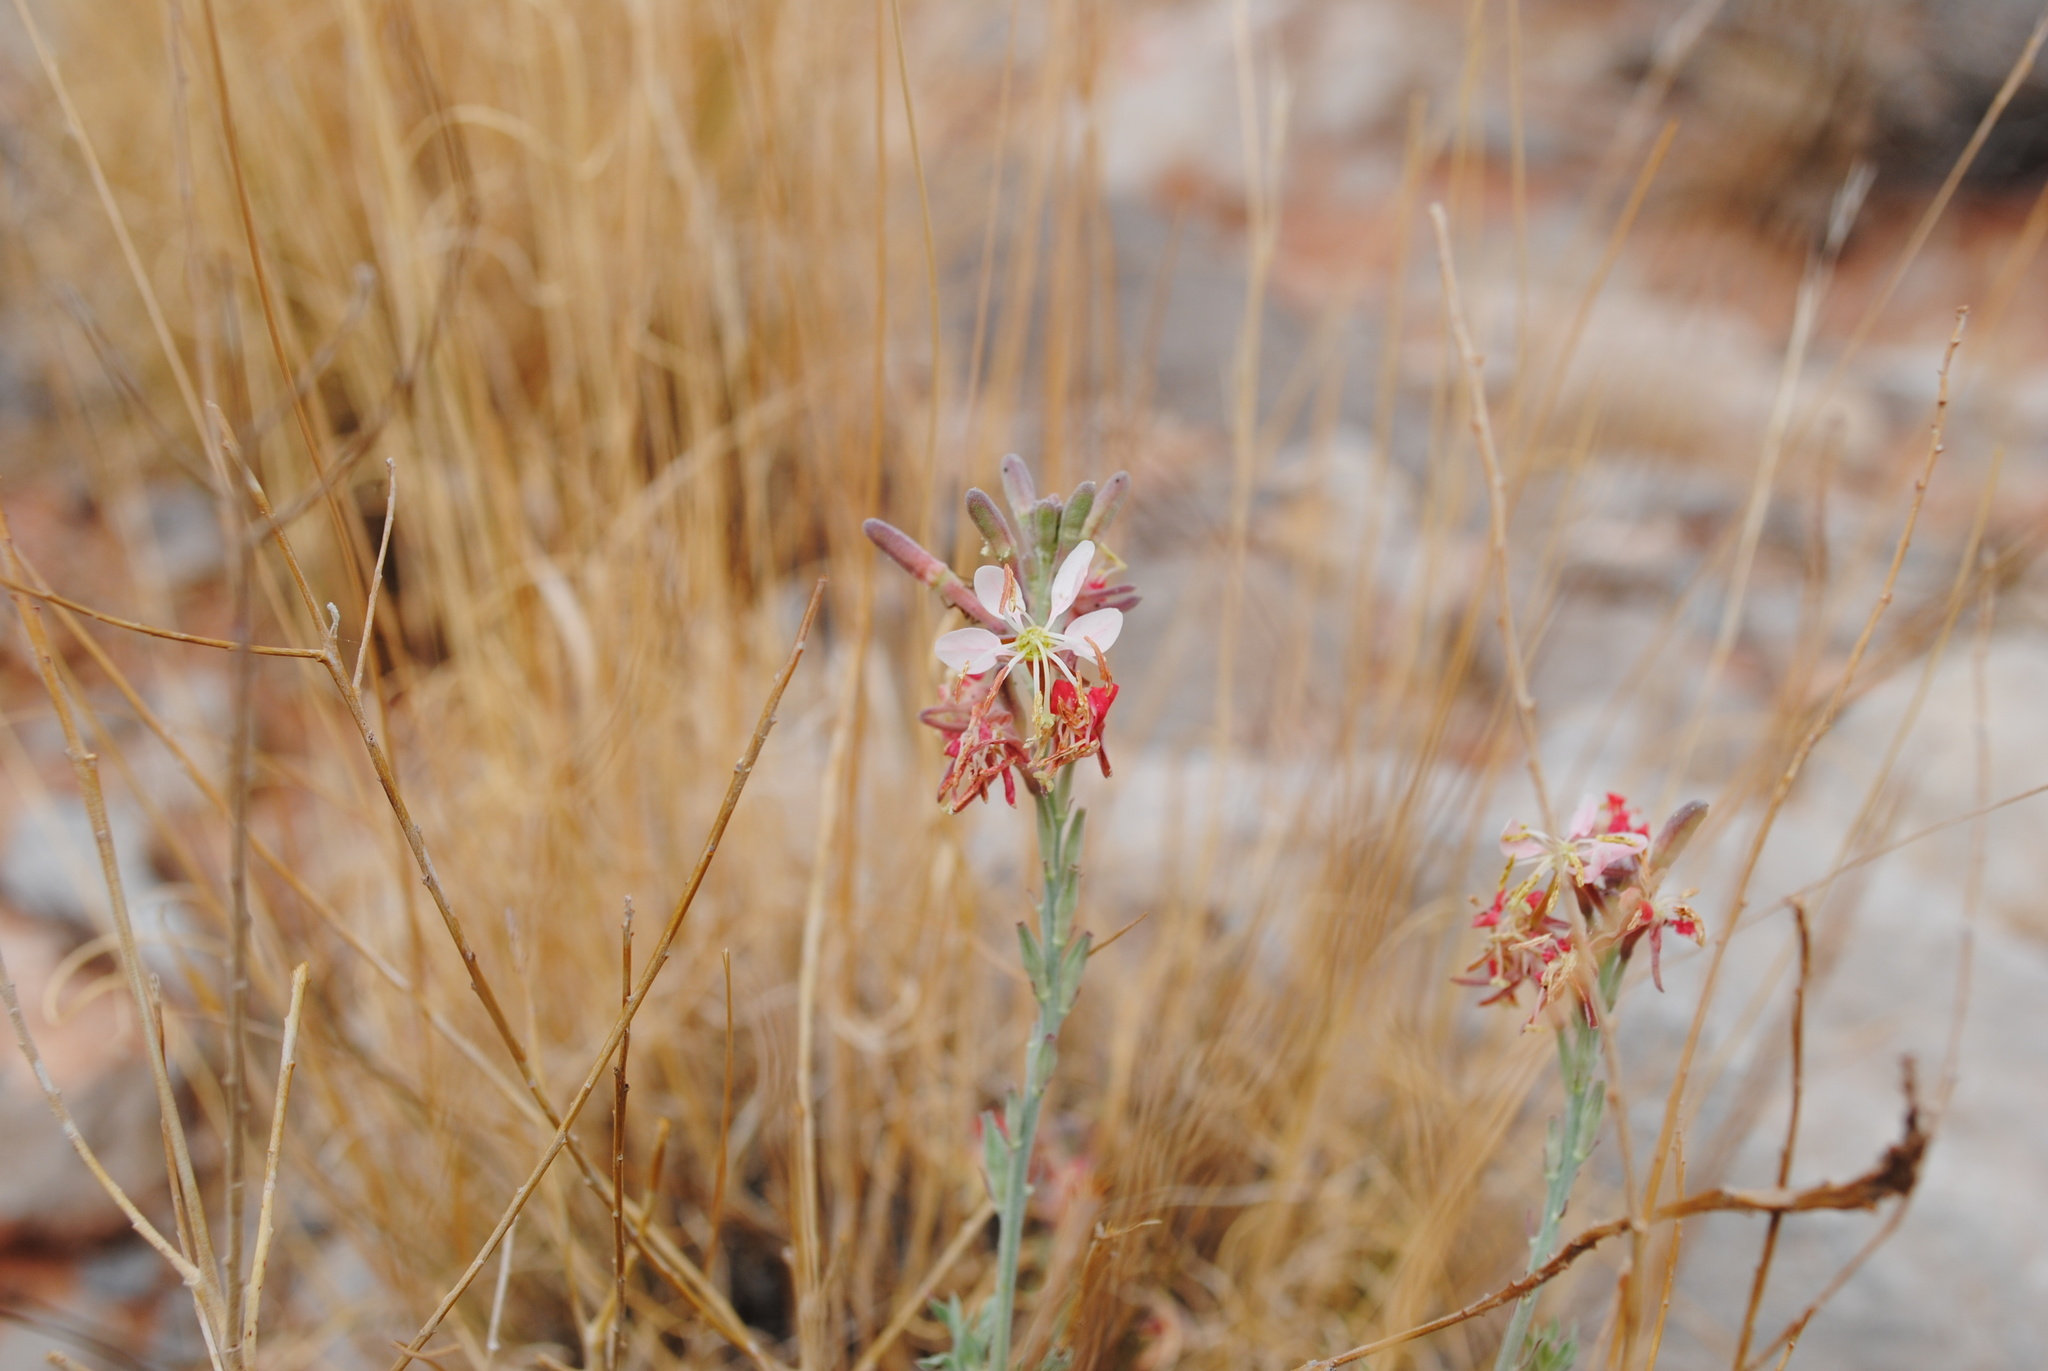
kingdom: Plantae
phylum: Tracheophyta
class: Magnoliopsida
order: Myrtales
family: Onagraceae
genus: Oenothera
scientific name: Oenothera suffrutescens
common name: Scarlet beeblossom
